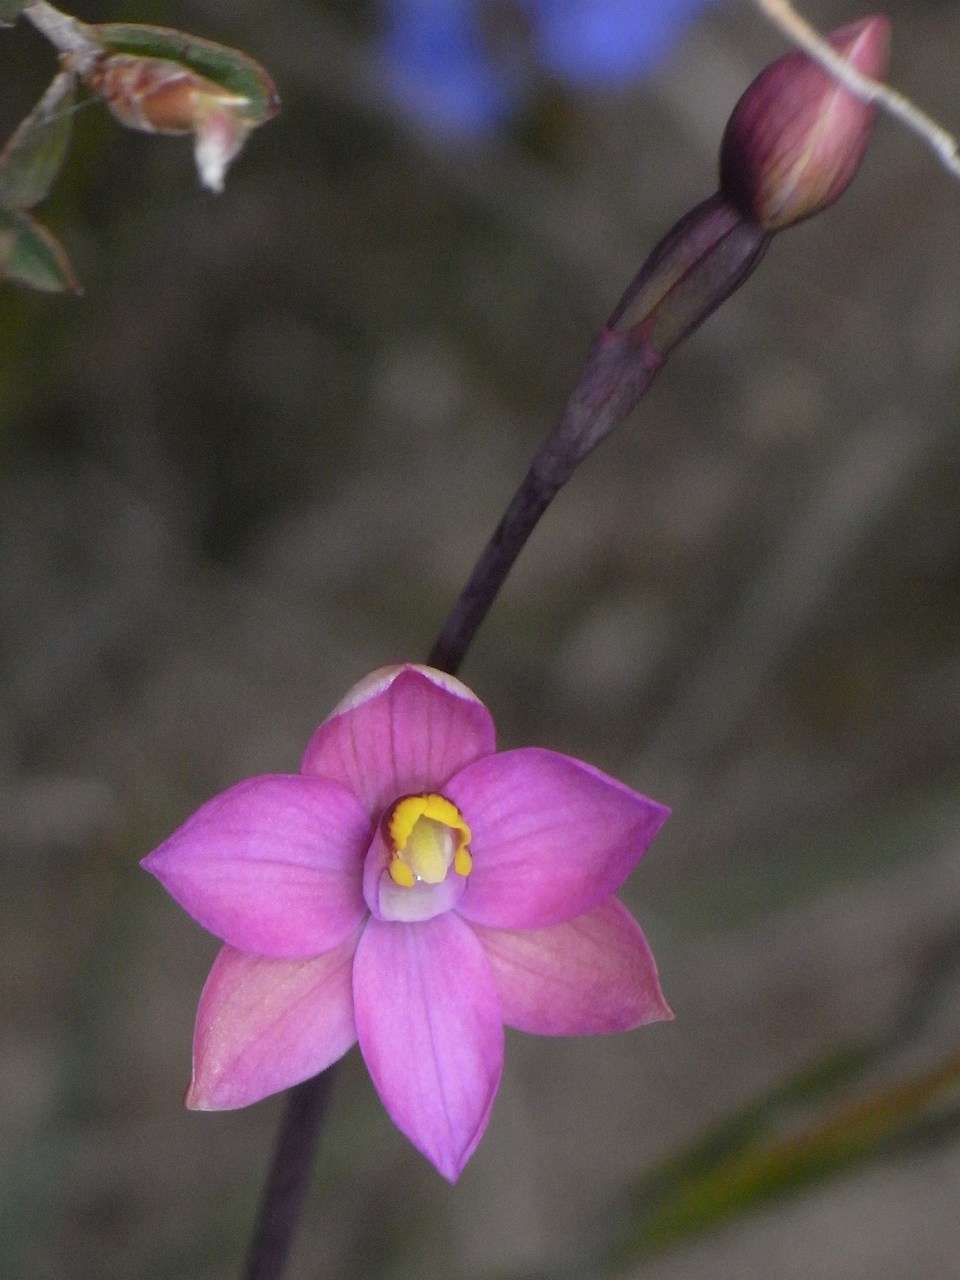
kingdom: Plantae
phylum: Tracheophyta
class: Liliopsida
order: Asparagales
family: Orchidaceae
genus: Thelymitra
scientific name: Thelymitra carnea
